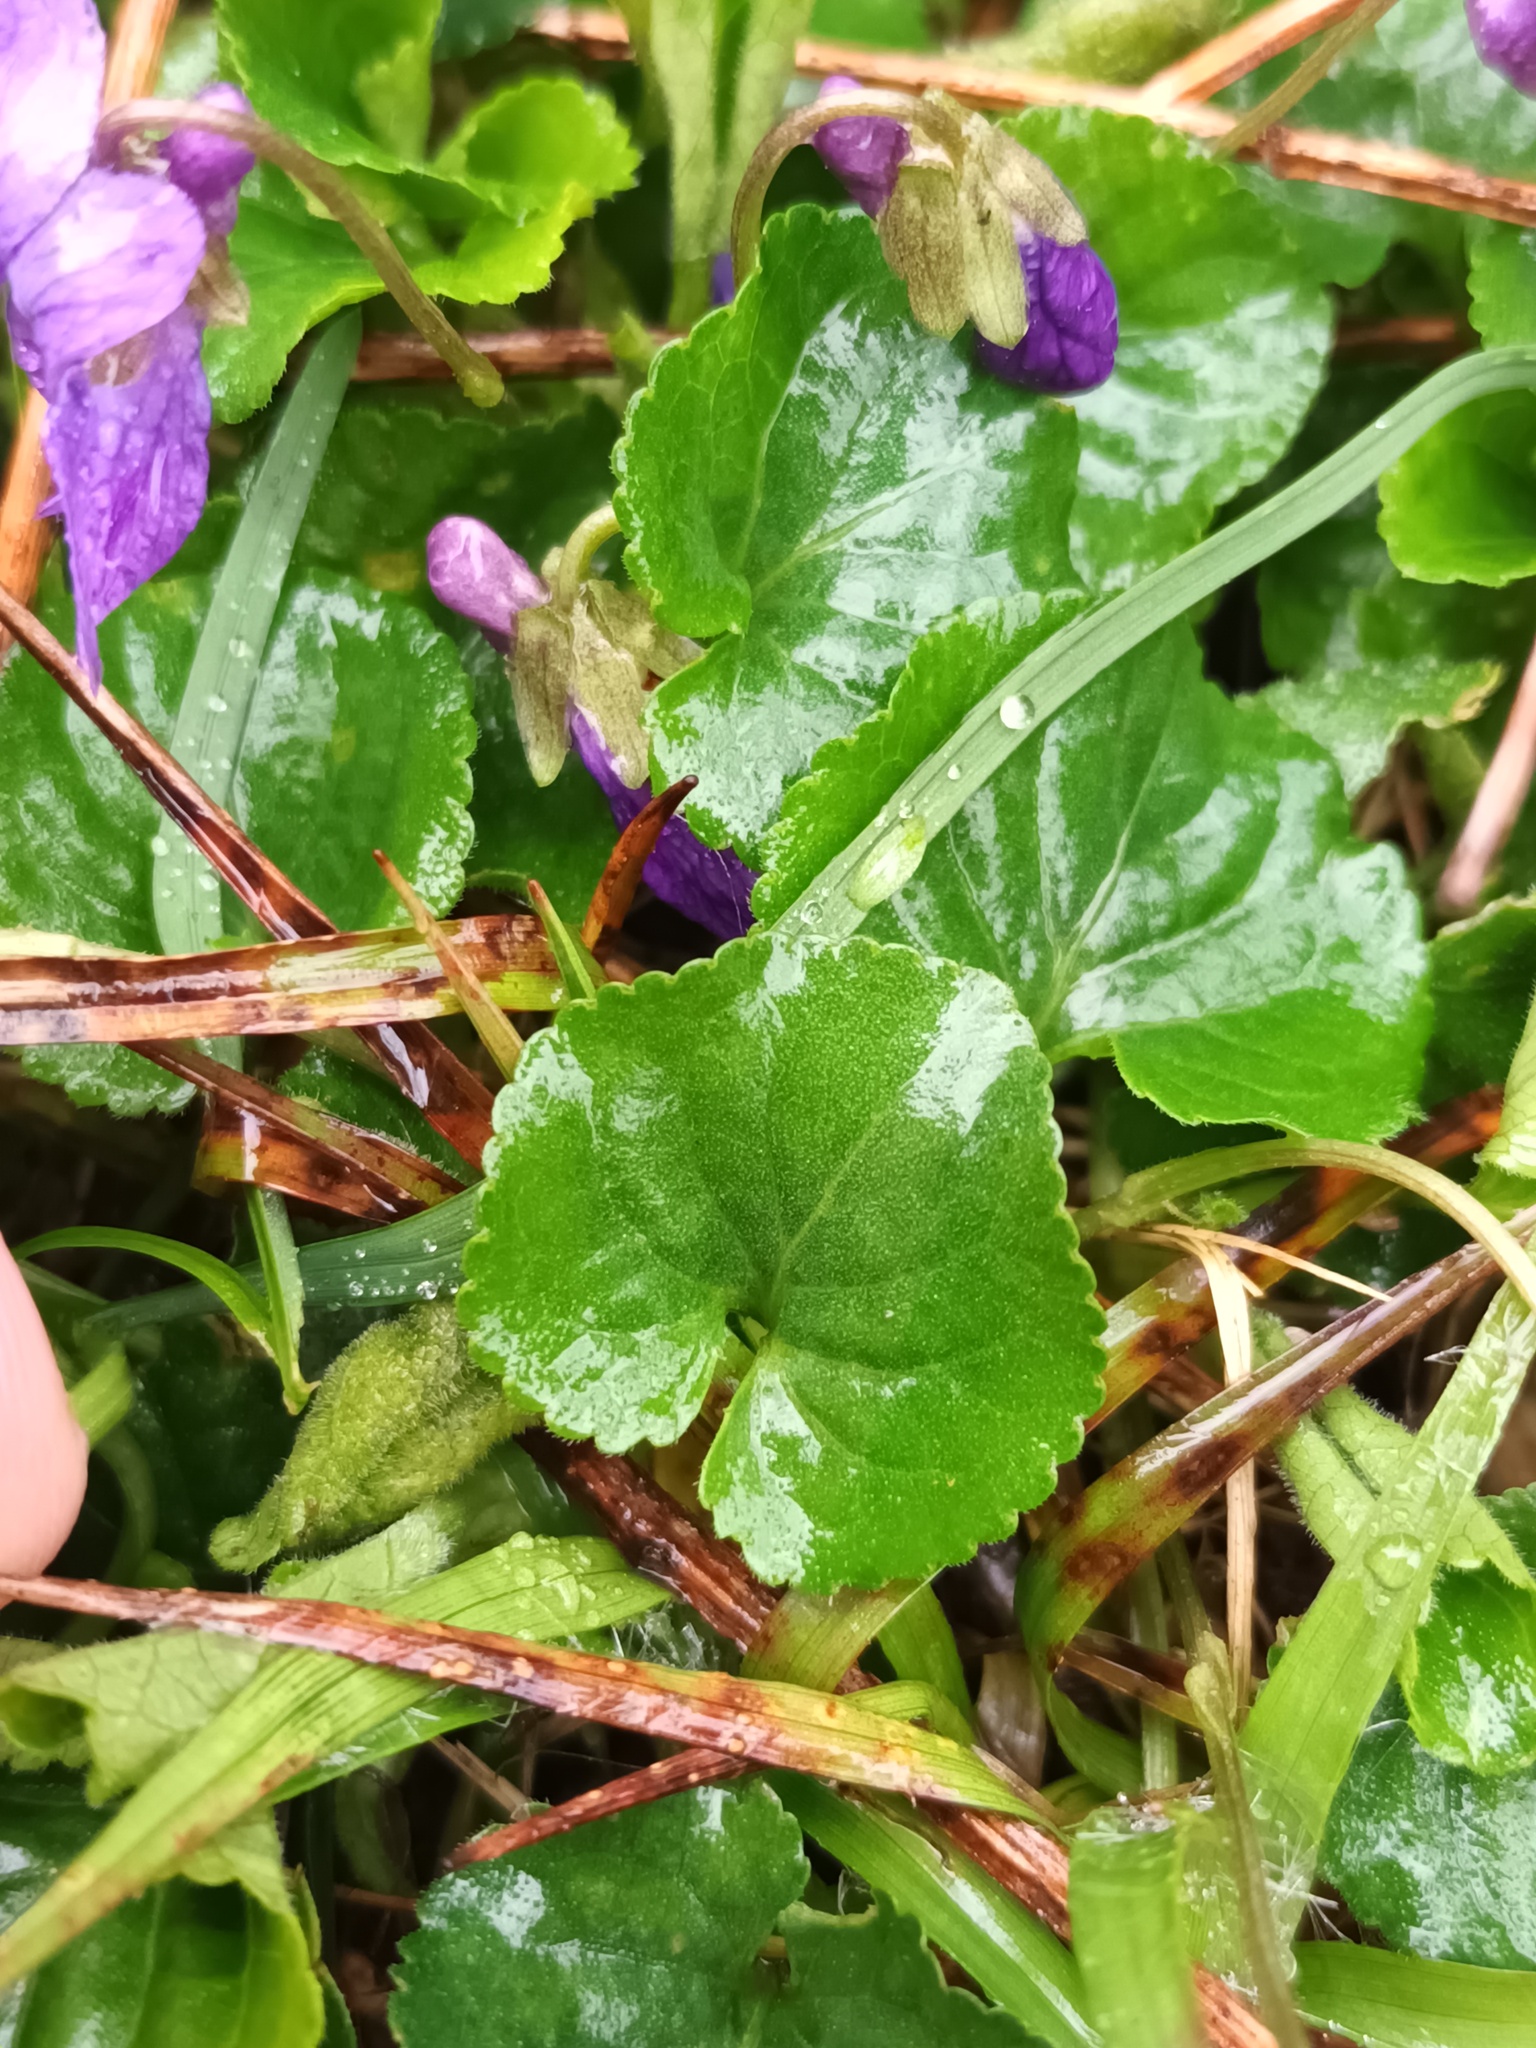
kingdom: Plantae
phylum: Tracheophyta
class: Magnoliopsida
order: Malpighiales
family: Violaceae
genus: Viola
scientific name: Viola odorata
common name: Sweet violet
